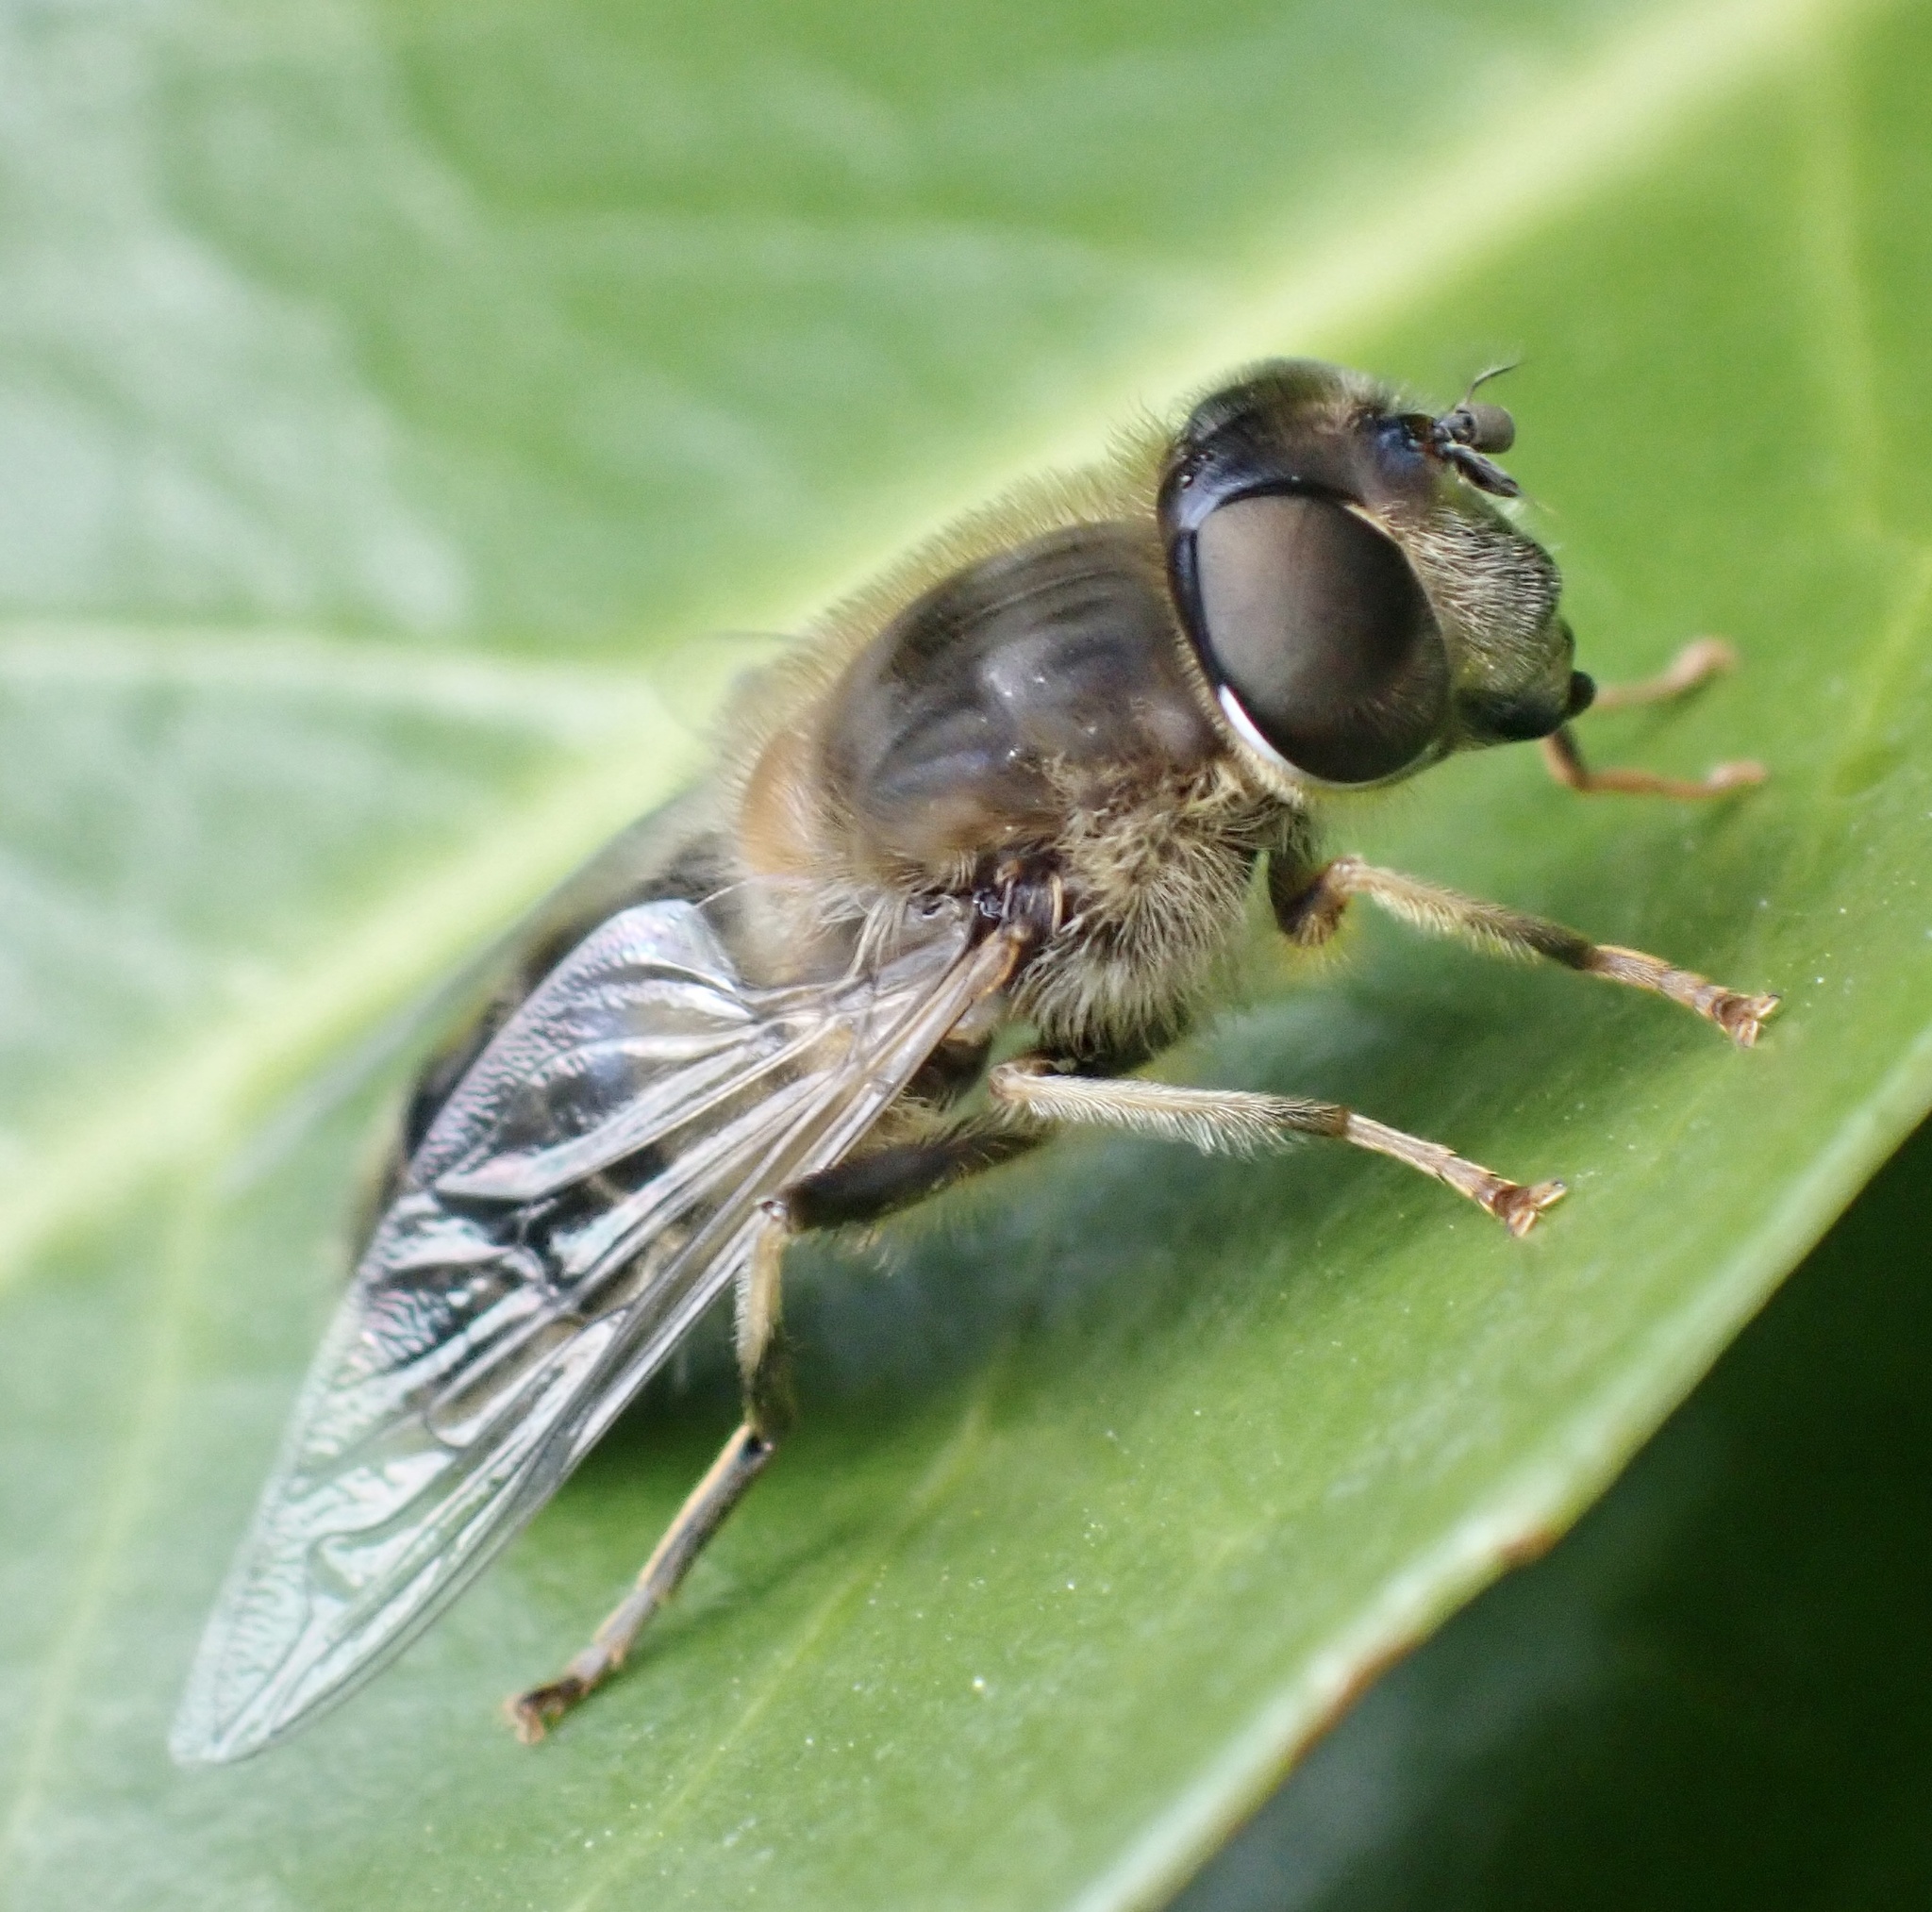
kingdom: Animalia
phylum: Arthropoda
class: Insecta
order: Diptera
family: Syrphidae
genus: Eristalis
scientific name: Eristalis pertinax
